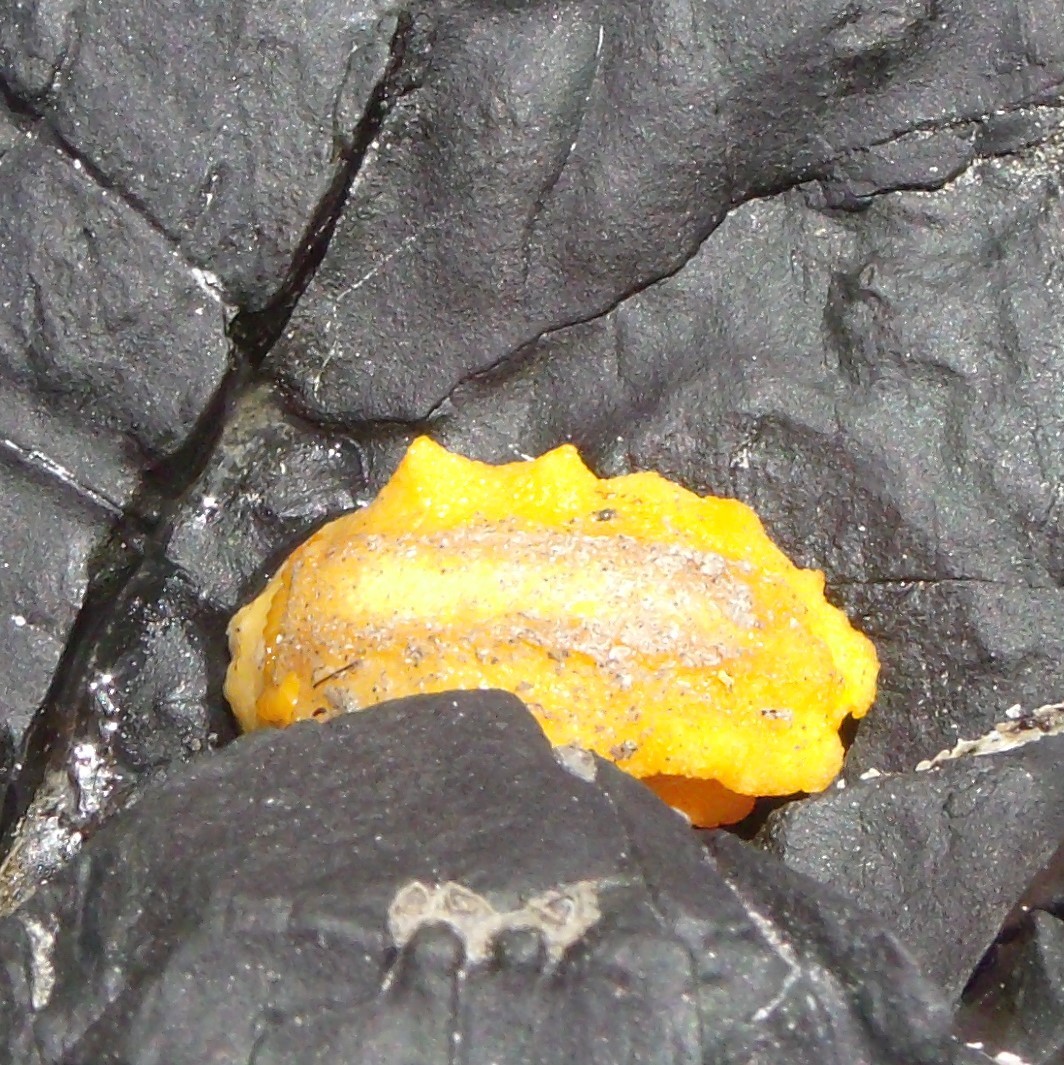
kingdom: Animalia
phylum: Mollusca
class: Gastropoda
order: Nudibranchia
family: Dorididae
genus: Doriopsis
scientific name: Doriopsis granulosa
